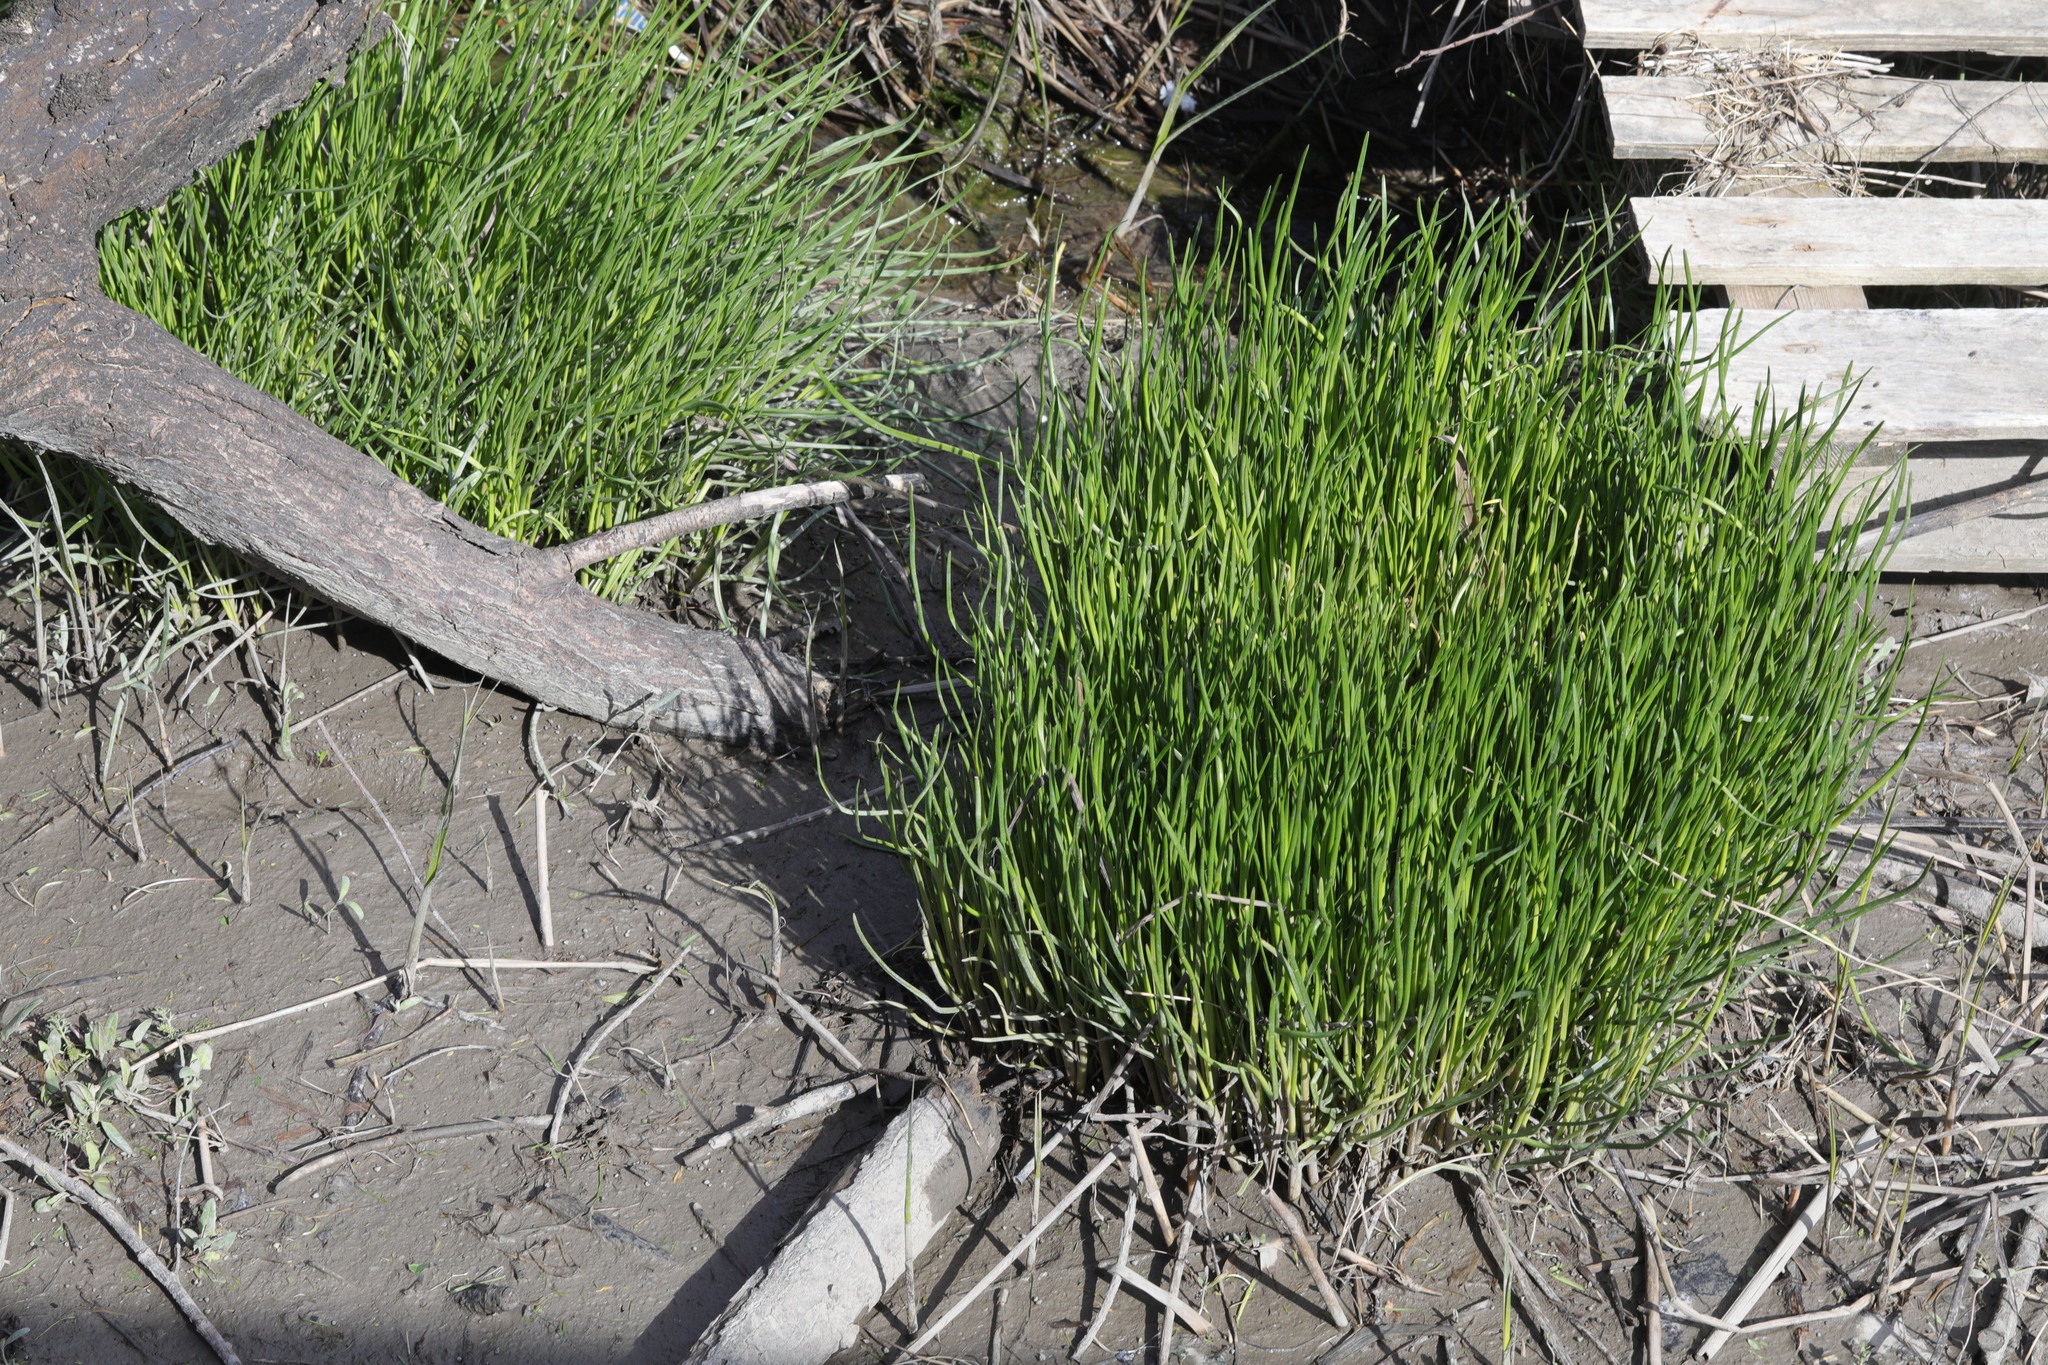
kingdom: Plantae
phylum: Tracheophyta
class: Liliopsida
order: Alismatales
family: Juncaginaceae
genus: Triglochin
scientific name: Triglochin maritima
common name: Sea arrowgrass
